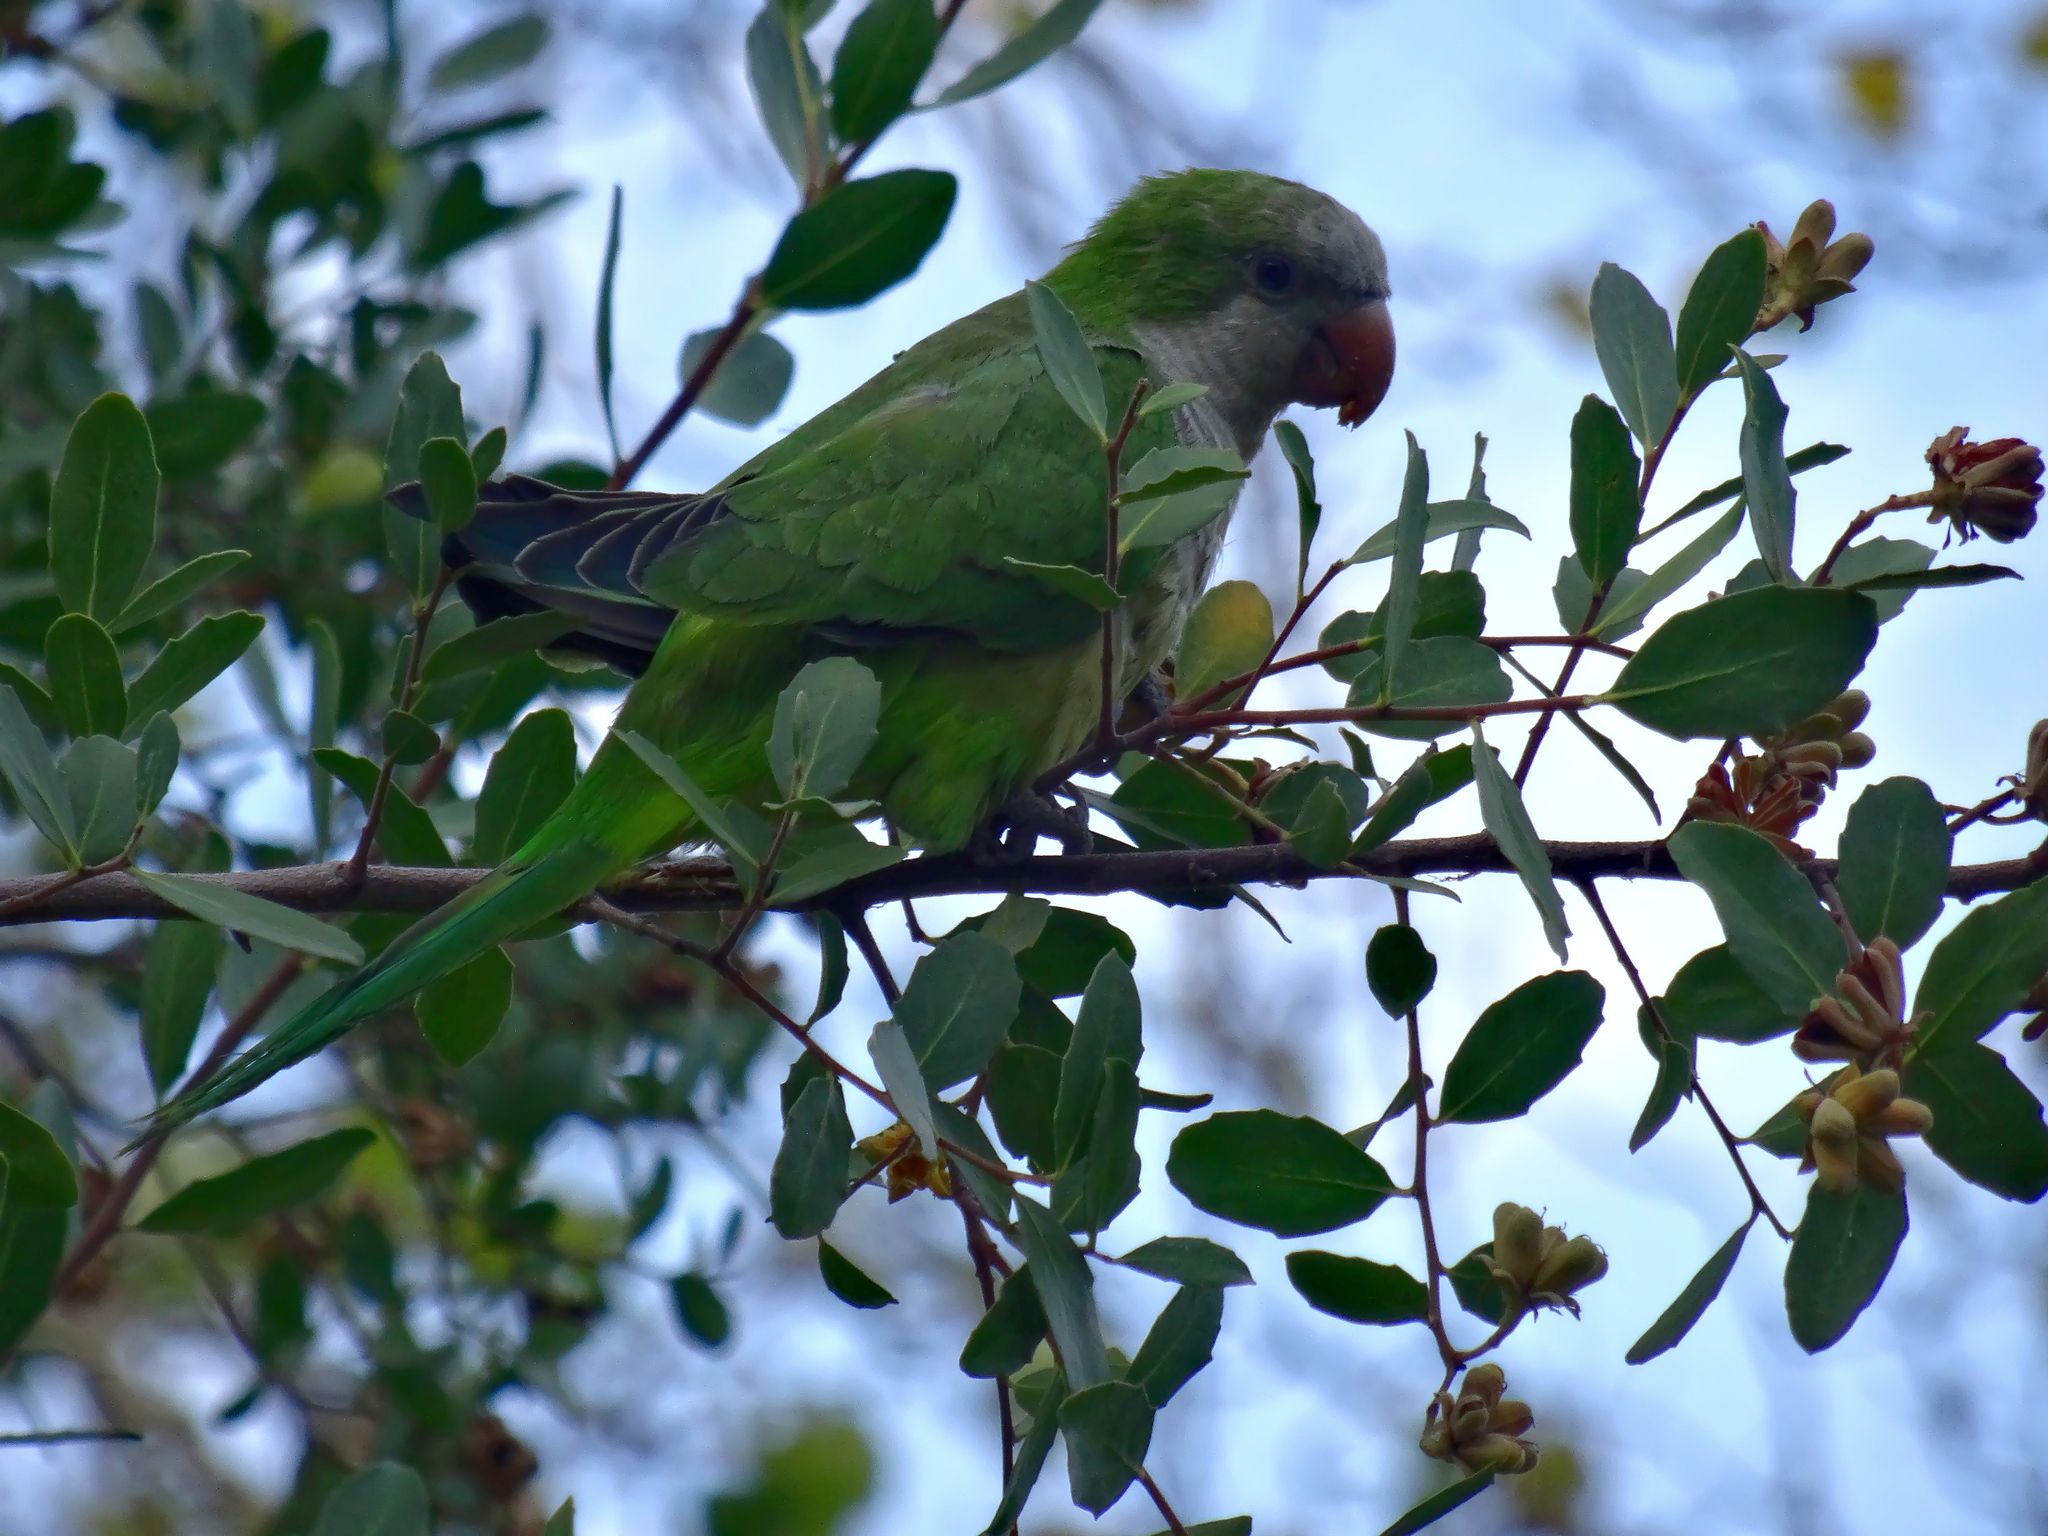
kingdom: Animalia
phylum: Chordata
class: Aves
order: Psittaciformes
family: Psittacidae
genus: Myiopsitta
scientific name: Myiopsitta monachus
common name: Monk parakeet
